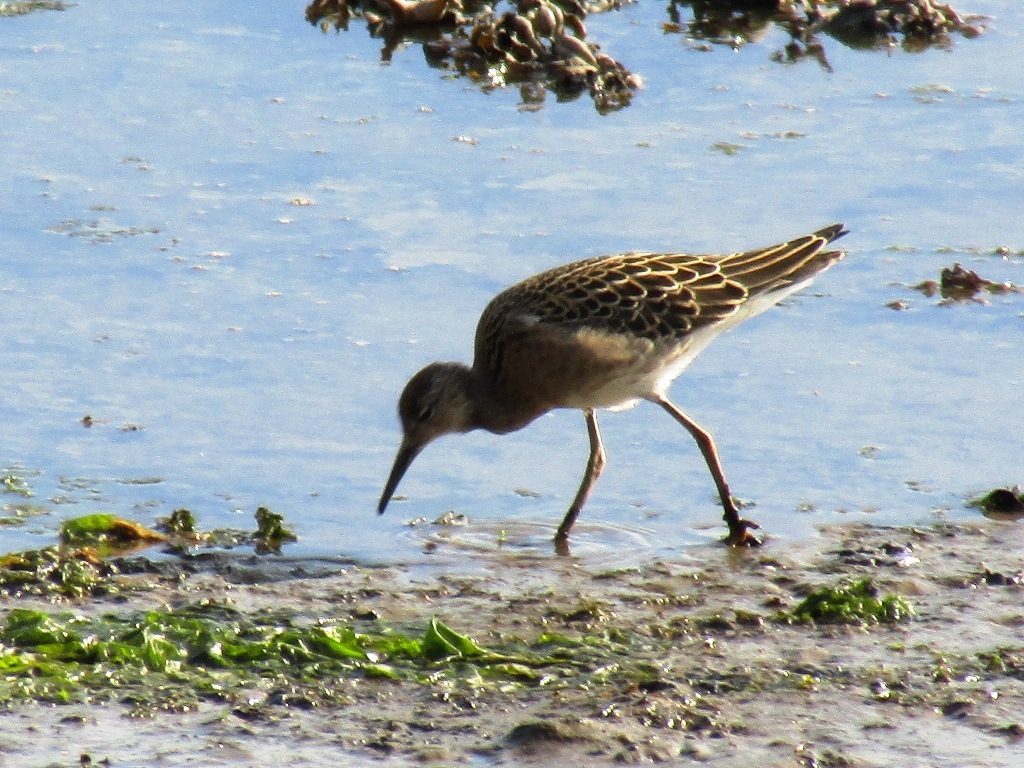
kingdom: Animalia
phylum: Chordata
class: Aves
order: Charadriiformes
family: Scolopacidae
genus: Calidris
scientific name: Calidris pugnax
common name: Ruff
